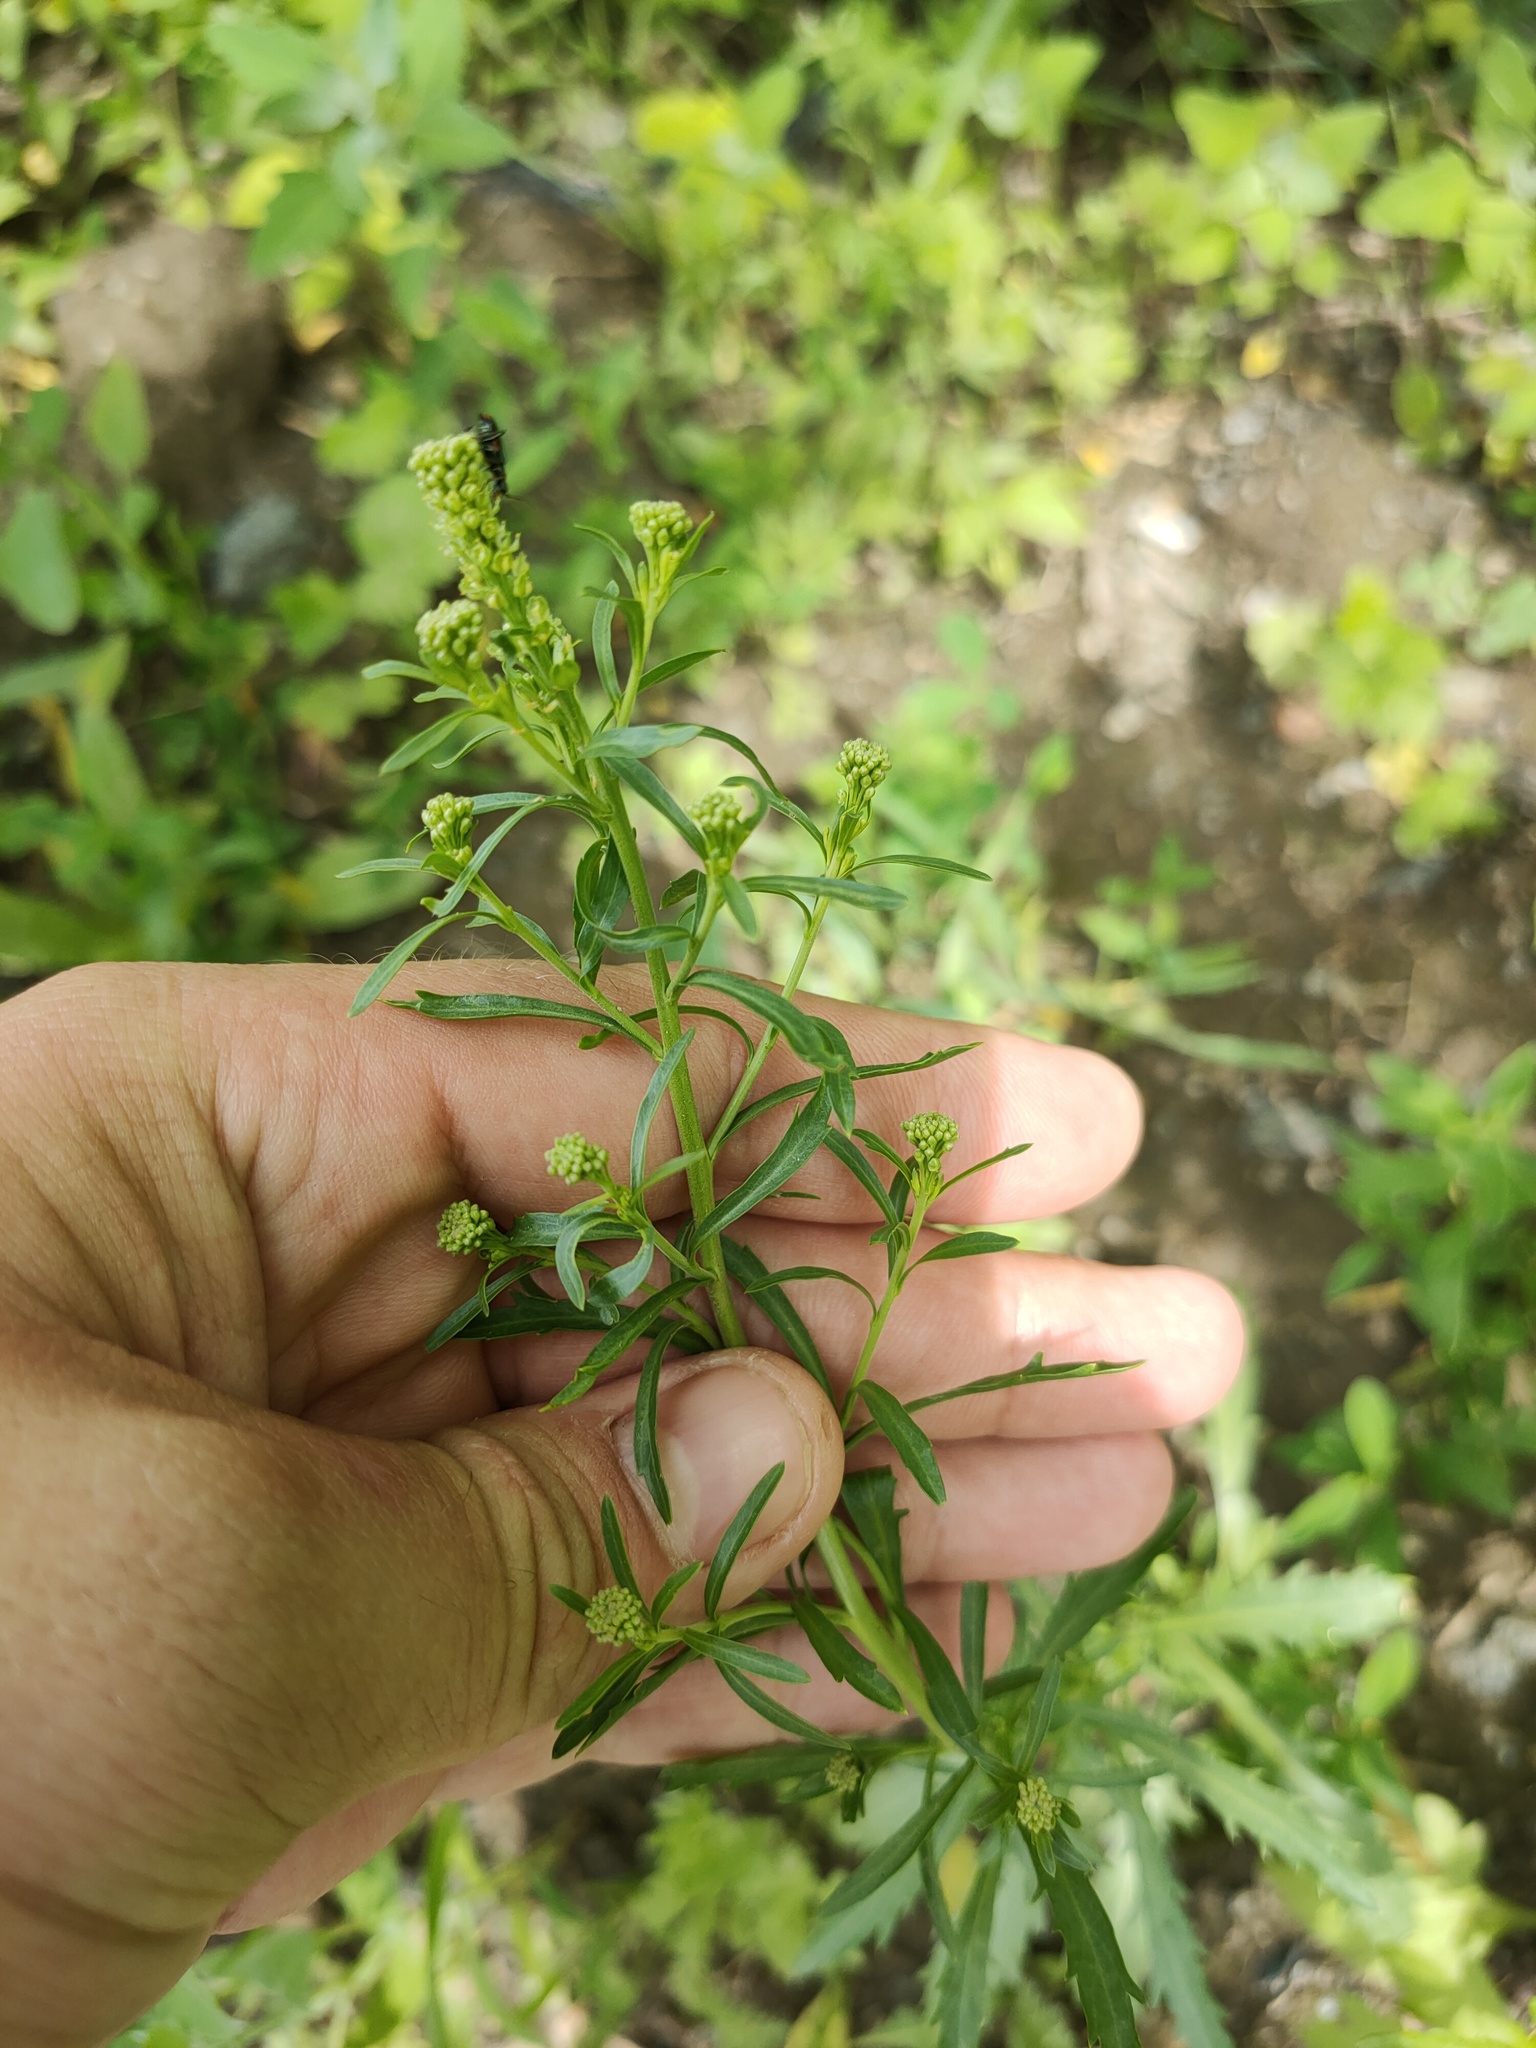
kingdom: Plantae
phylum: Tracheophyta
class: Magnoliopsida
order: Brassicales
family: Brassicaceae
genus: Lepidium
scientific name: Lepidium densiflorum
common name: Miner's pepperwort
